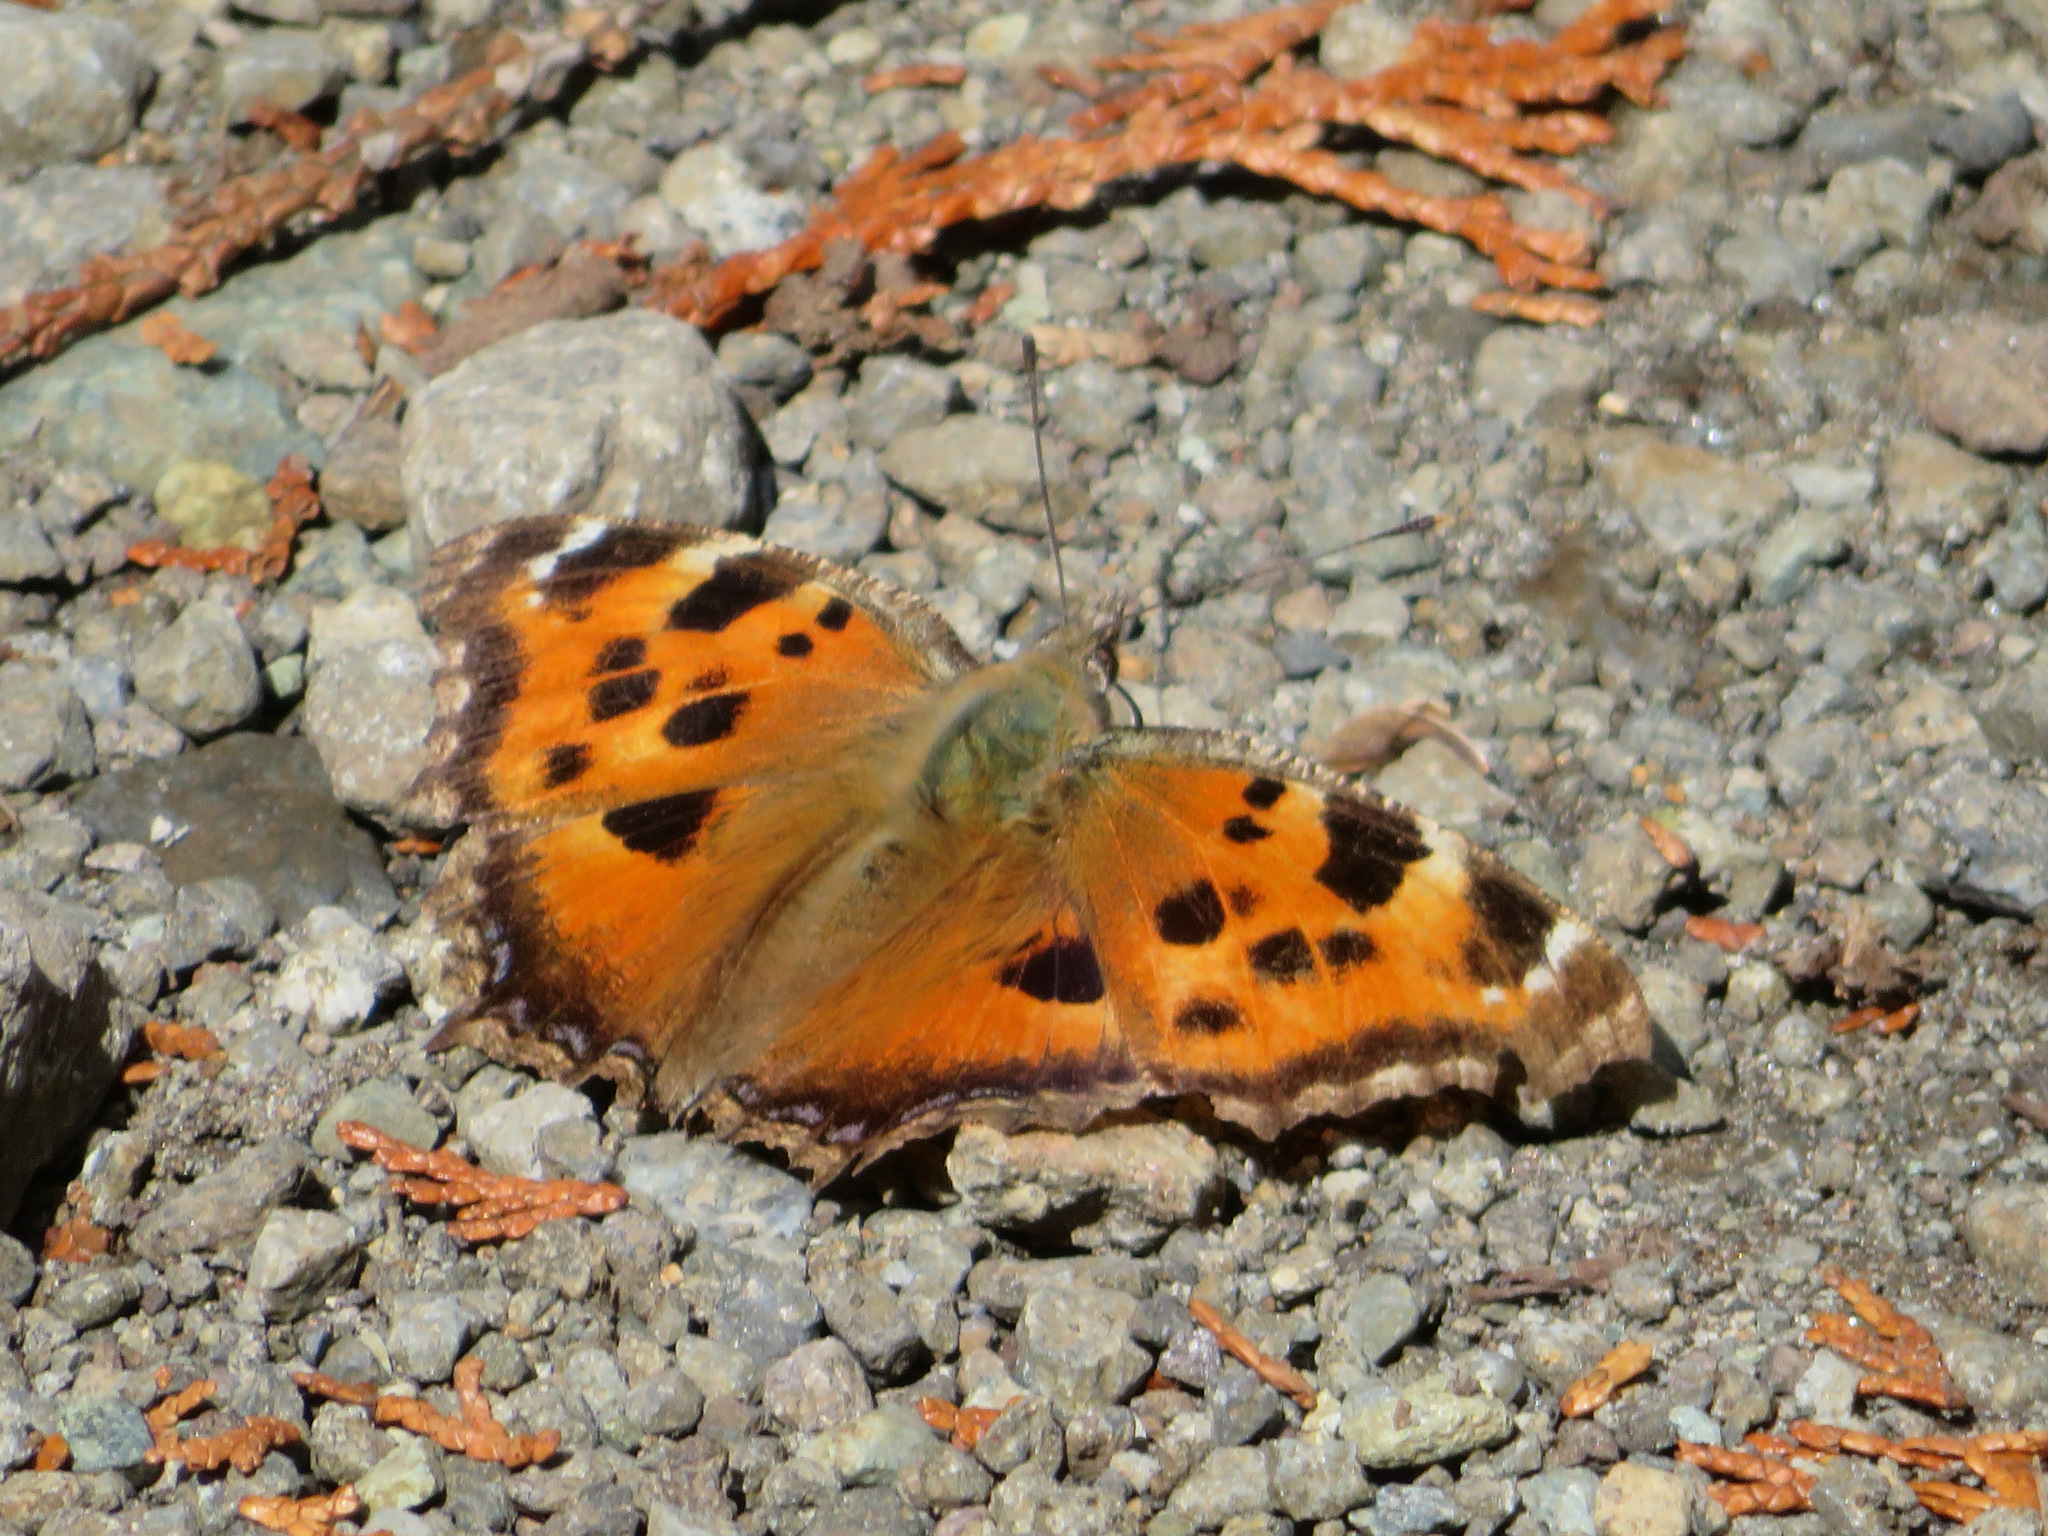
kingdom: Animalia
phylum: Arthropoda
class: Insecta
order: Lepidoptera
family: Nymphalidae
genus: Nymphalis
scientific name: Nymphalis xanthomelas
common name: Scarce tortoiseshell
